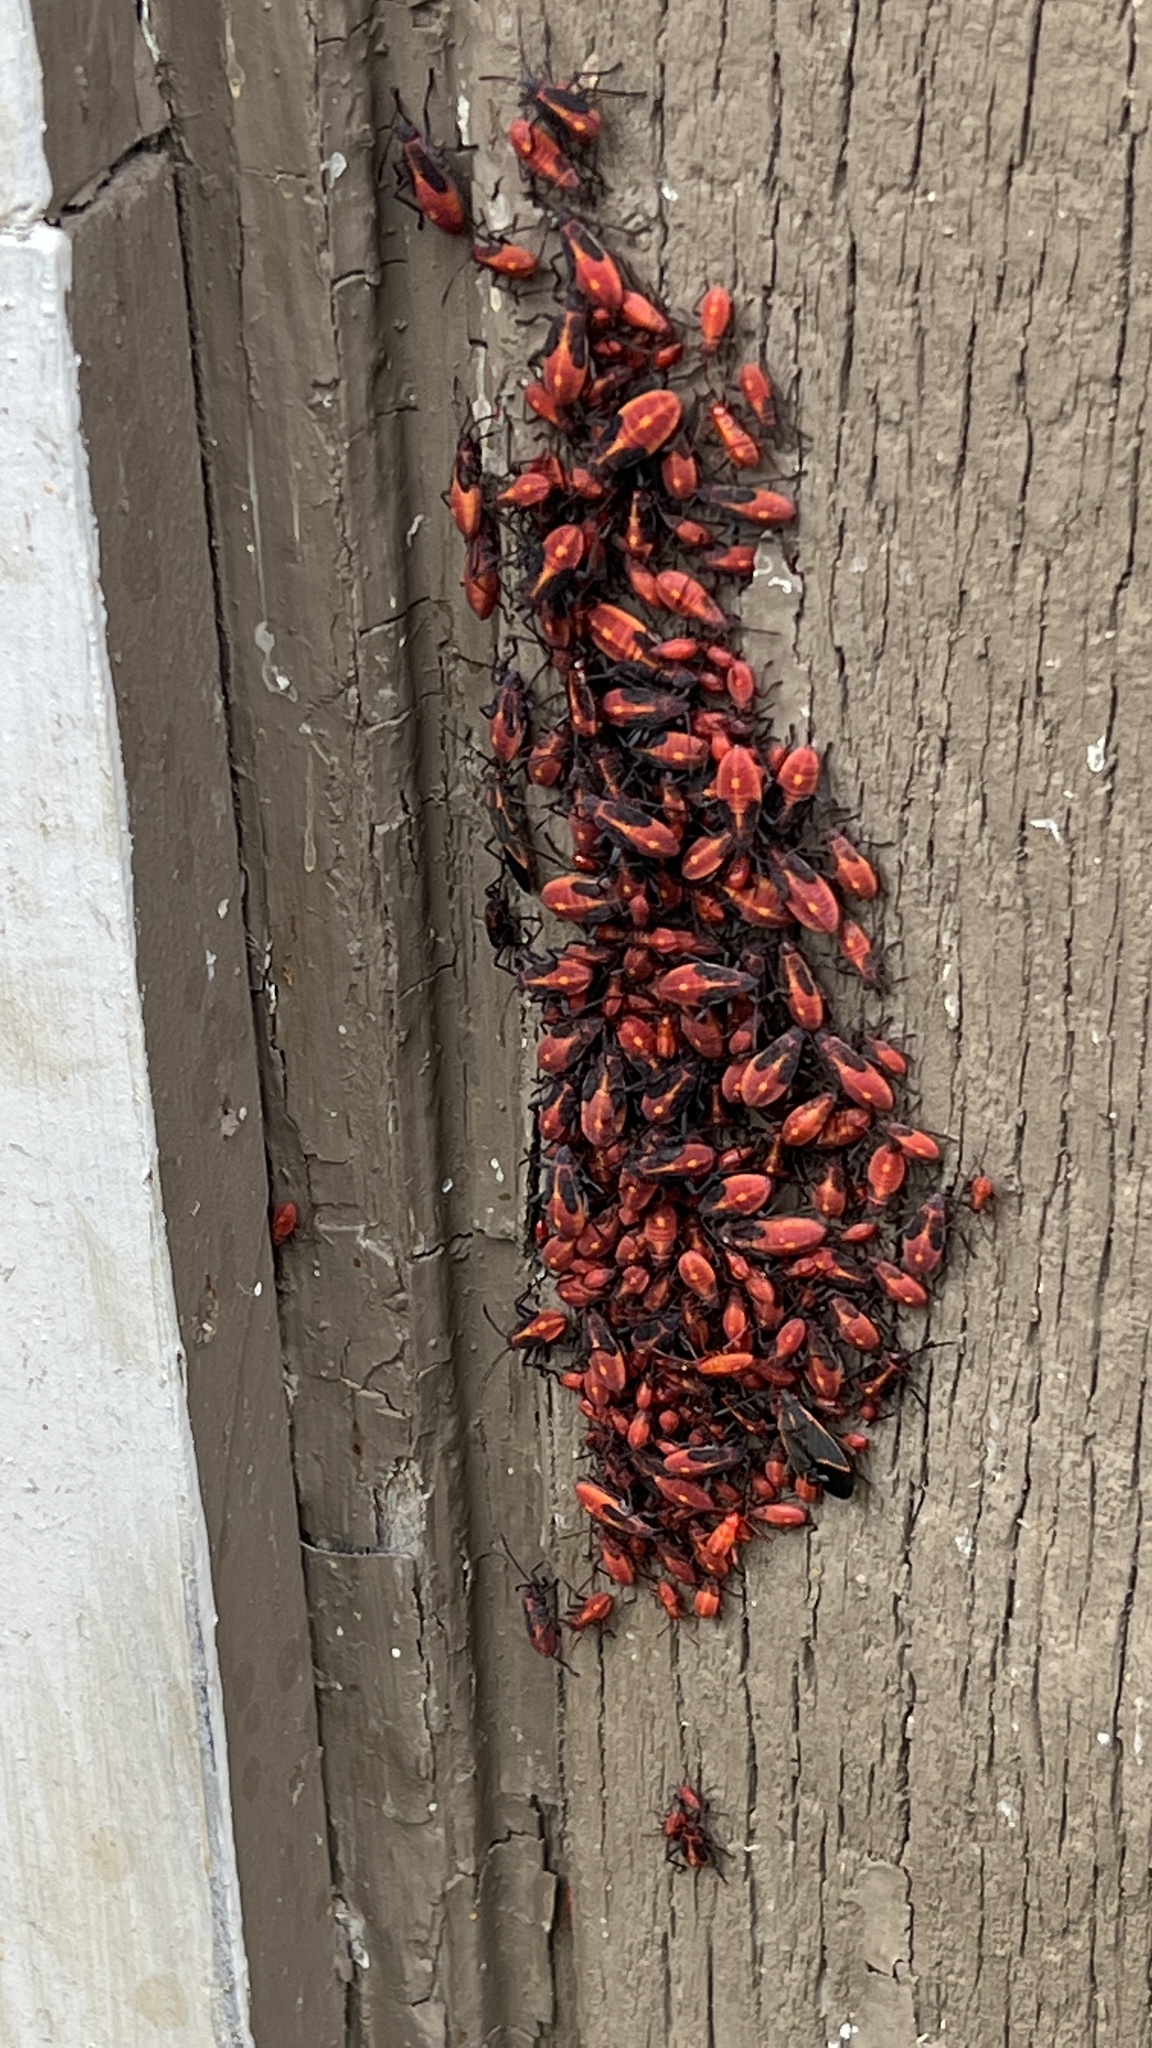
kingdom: Animalia
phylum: Arthropoda
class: Insecta
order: Hemiptera
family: Rhopalidae
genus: Boisea
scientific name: Boisea trivittata
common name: Boxelder bug
